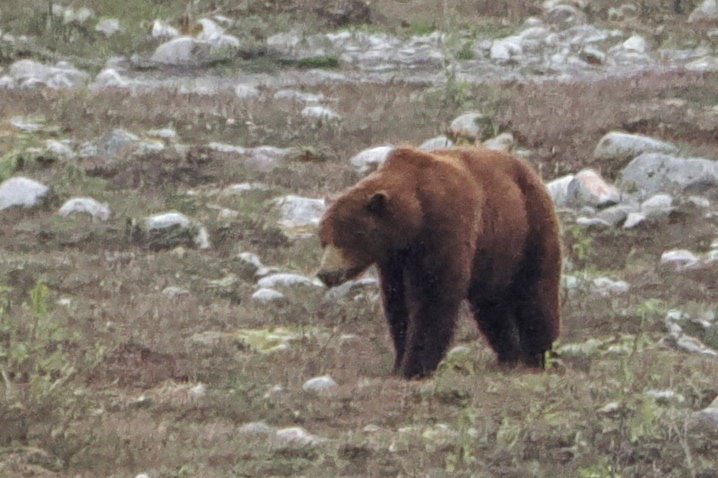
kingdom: Animalia
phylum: Chordata
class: Mammalia
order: Carnivora
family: Ursidae
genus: Ursus
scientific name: Ursus arctos
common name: Brown bear
